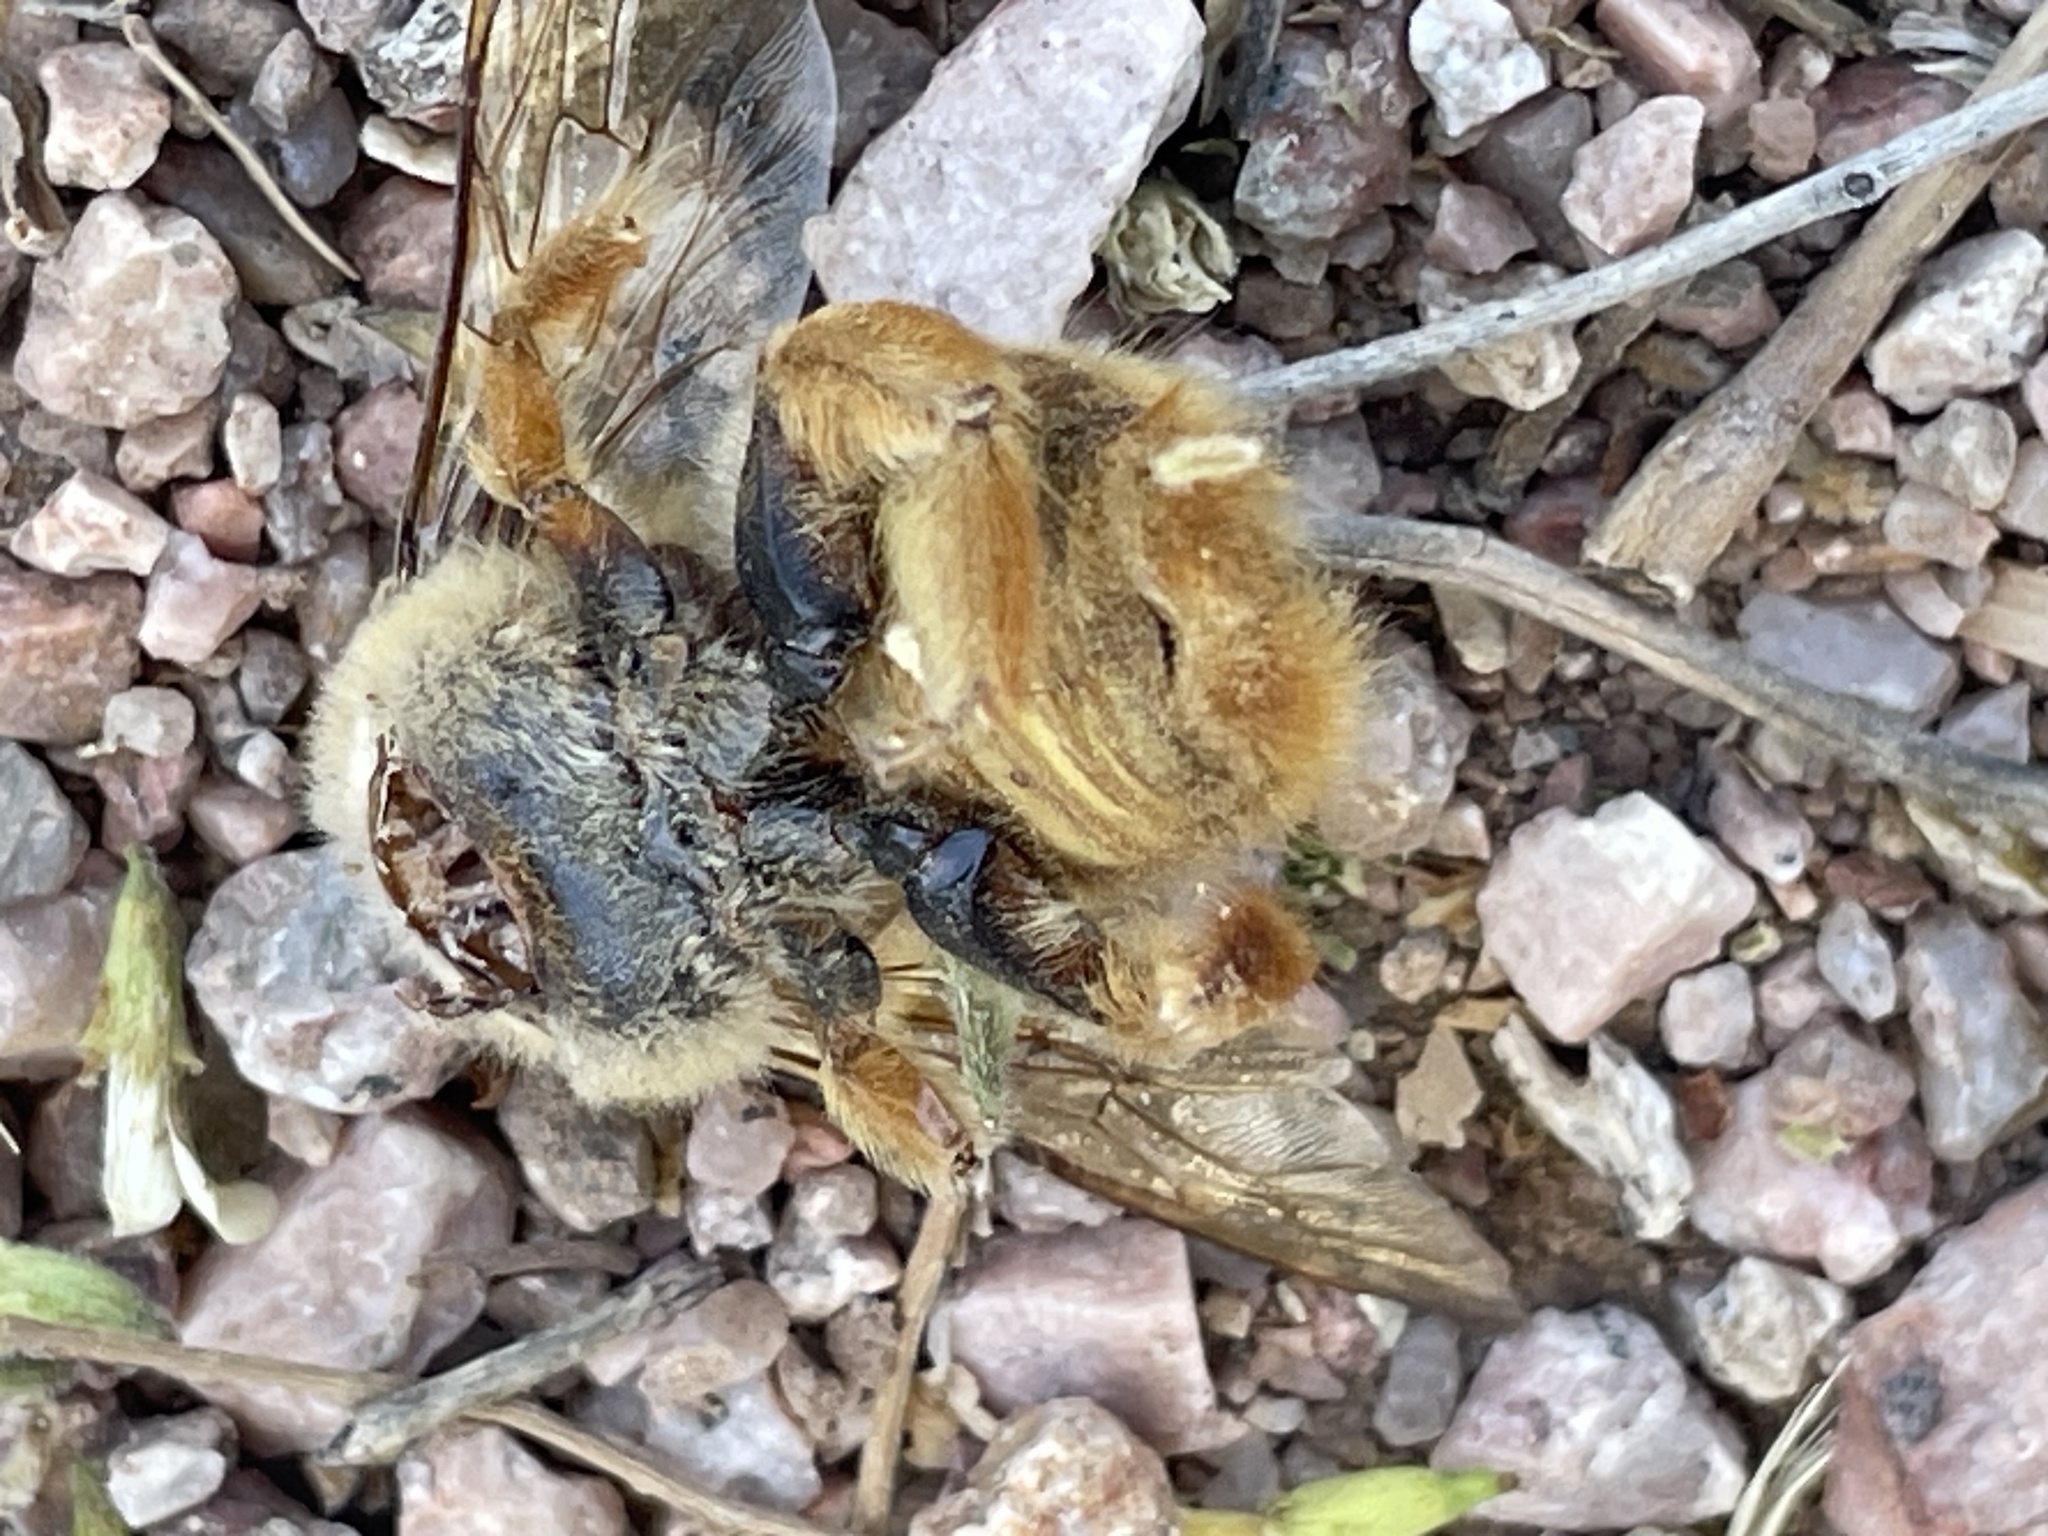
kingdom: Animalia
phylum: Arthropoda
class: Insecta
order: Hymenoptera
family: Apidae
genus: Xylocopa
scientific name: Xylocopa sonorina
